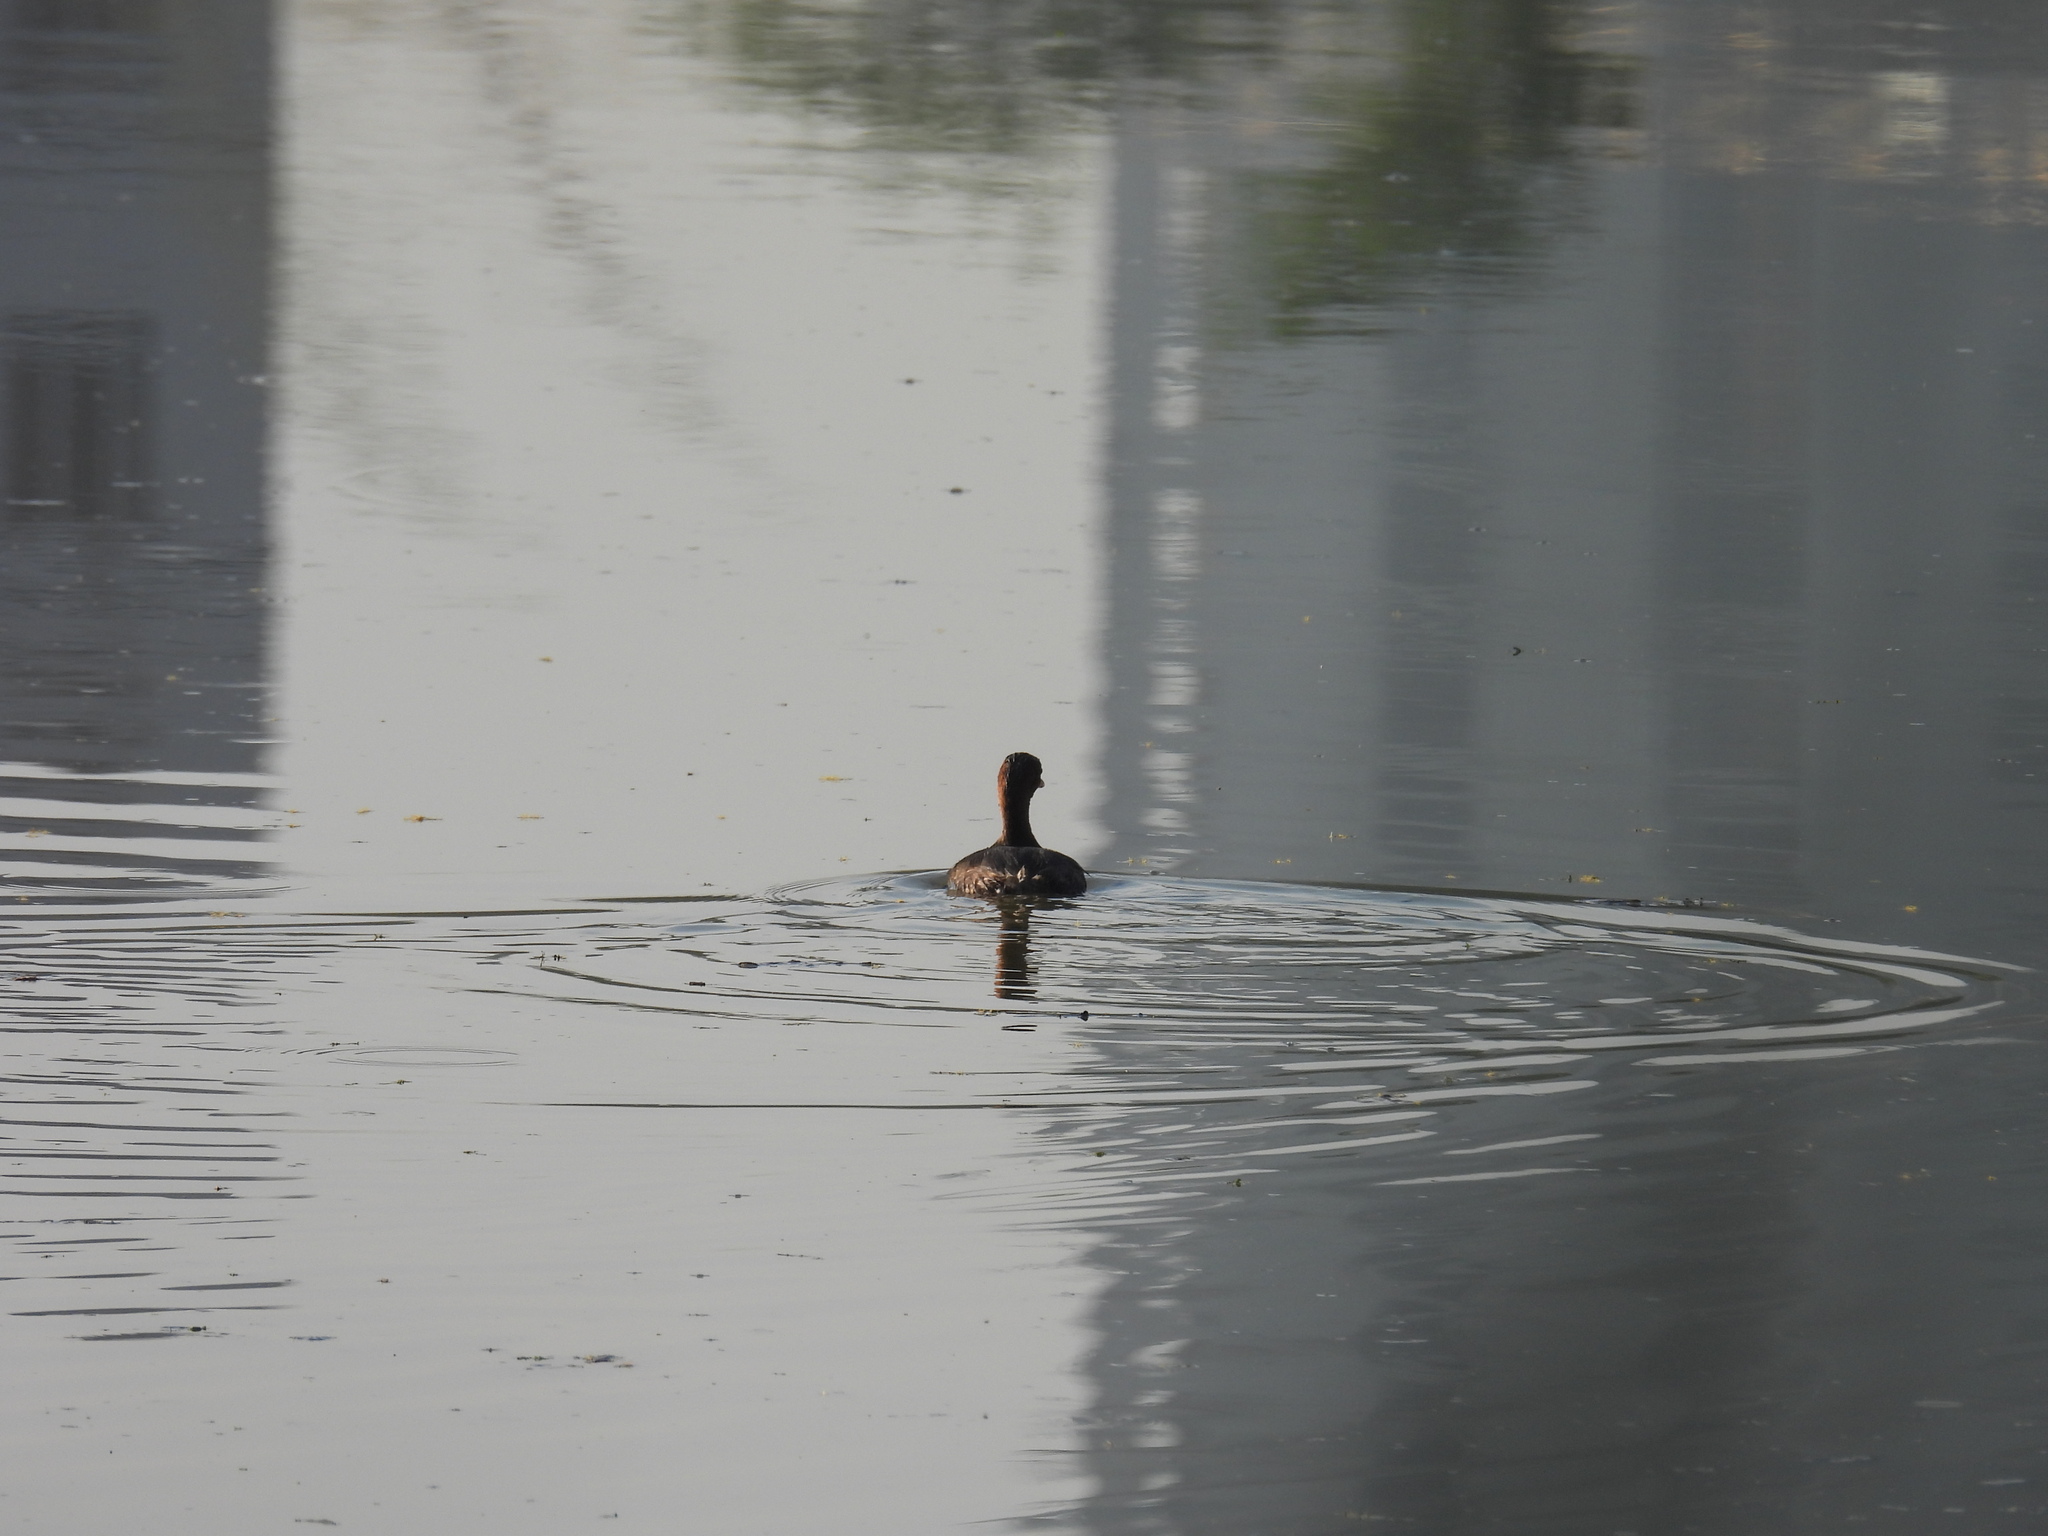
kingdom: Animalia
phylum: Chordata
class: Aves
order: Podicipediformes
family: Podicipedidae
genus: Tachybaptus
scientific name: Tachybaptus ruficollis
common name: Little grebe
